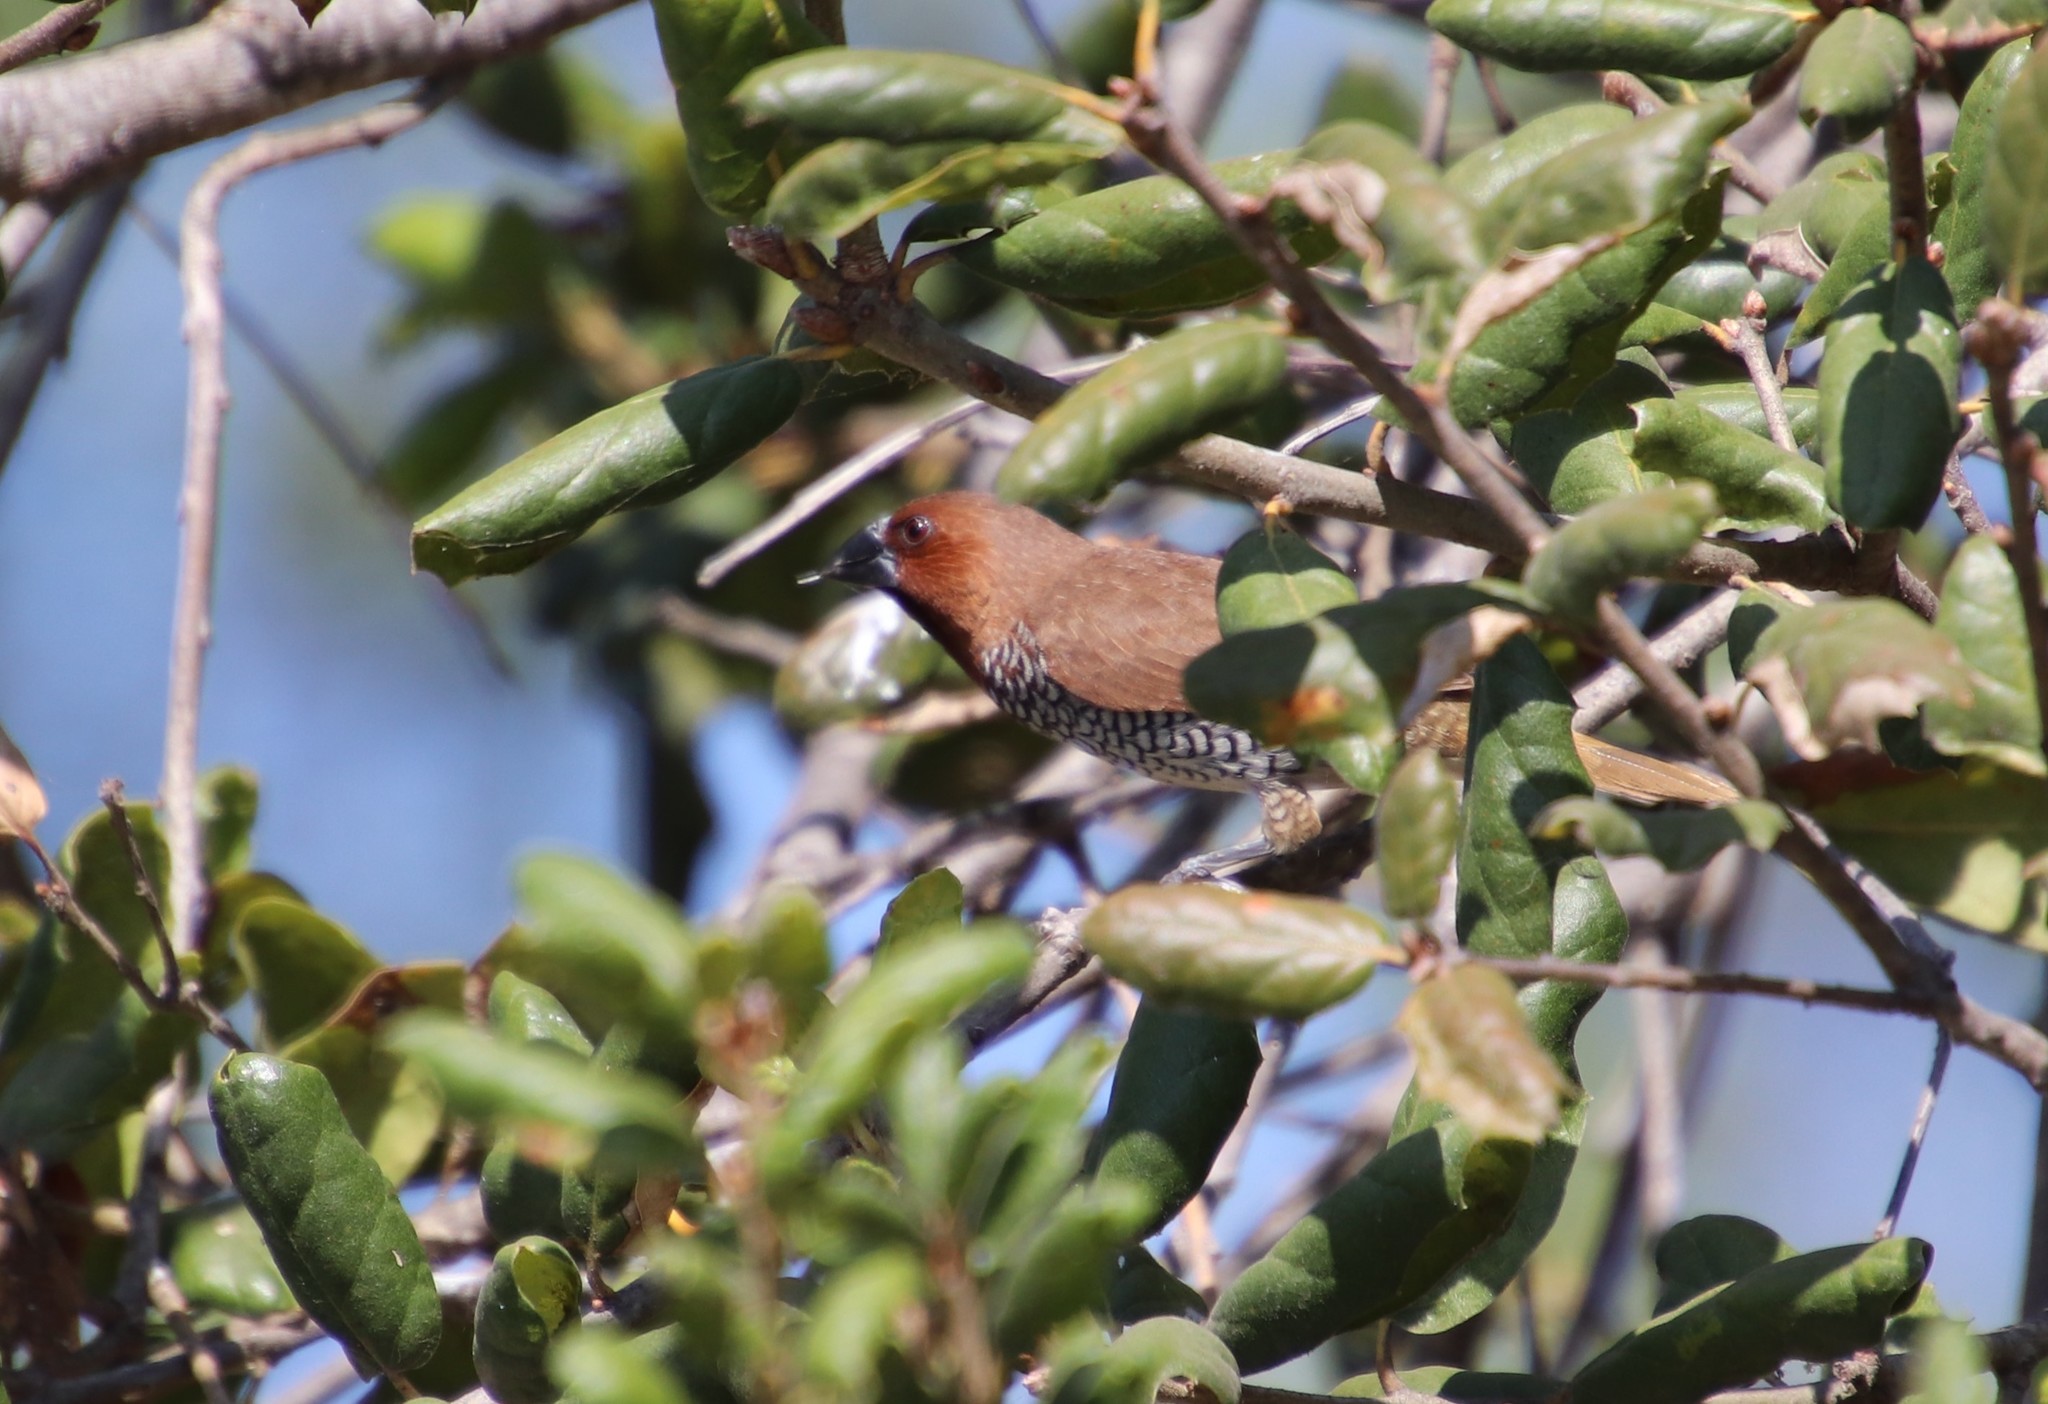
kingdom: Animalia
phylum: Chordata
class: Aves
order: Passeriformes
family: Estrildidae
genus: Lonchura
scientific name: Lonchura punctulata
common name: Scaly-breasted munia
